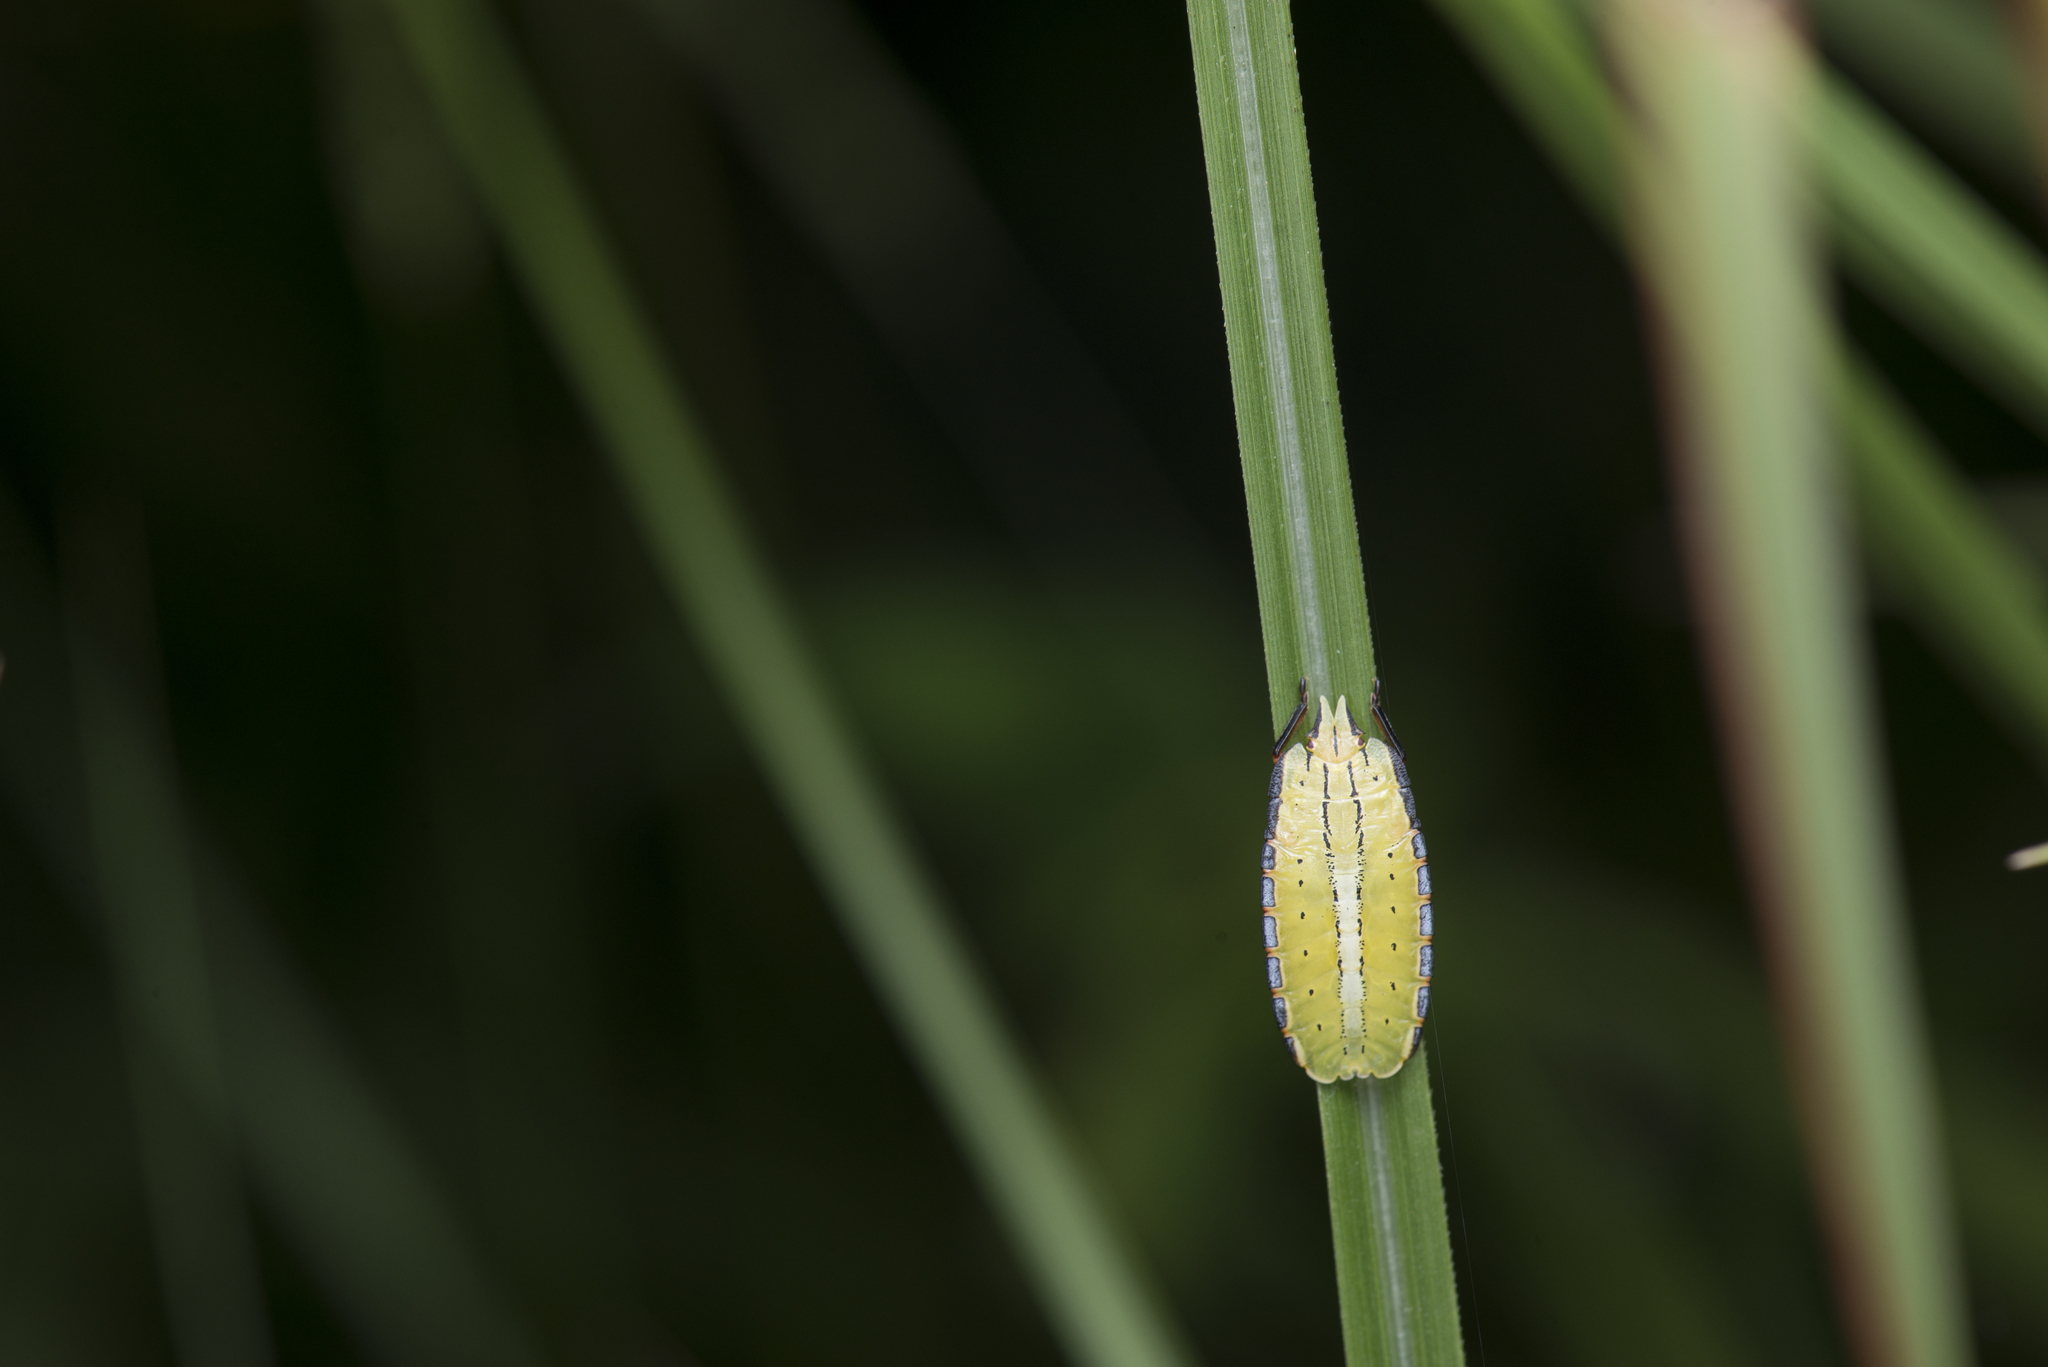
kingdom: Animalia
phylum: Arthropoda
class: Insecta
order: Hemiptera
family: Pentatomidae
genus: Megarrhamphus
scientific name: Megarrhamphus truncatus
